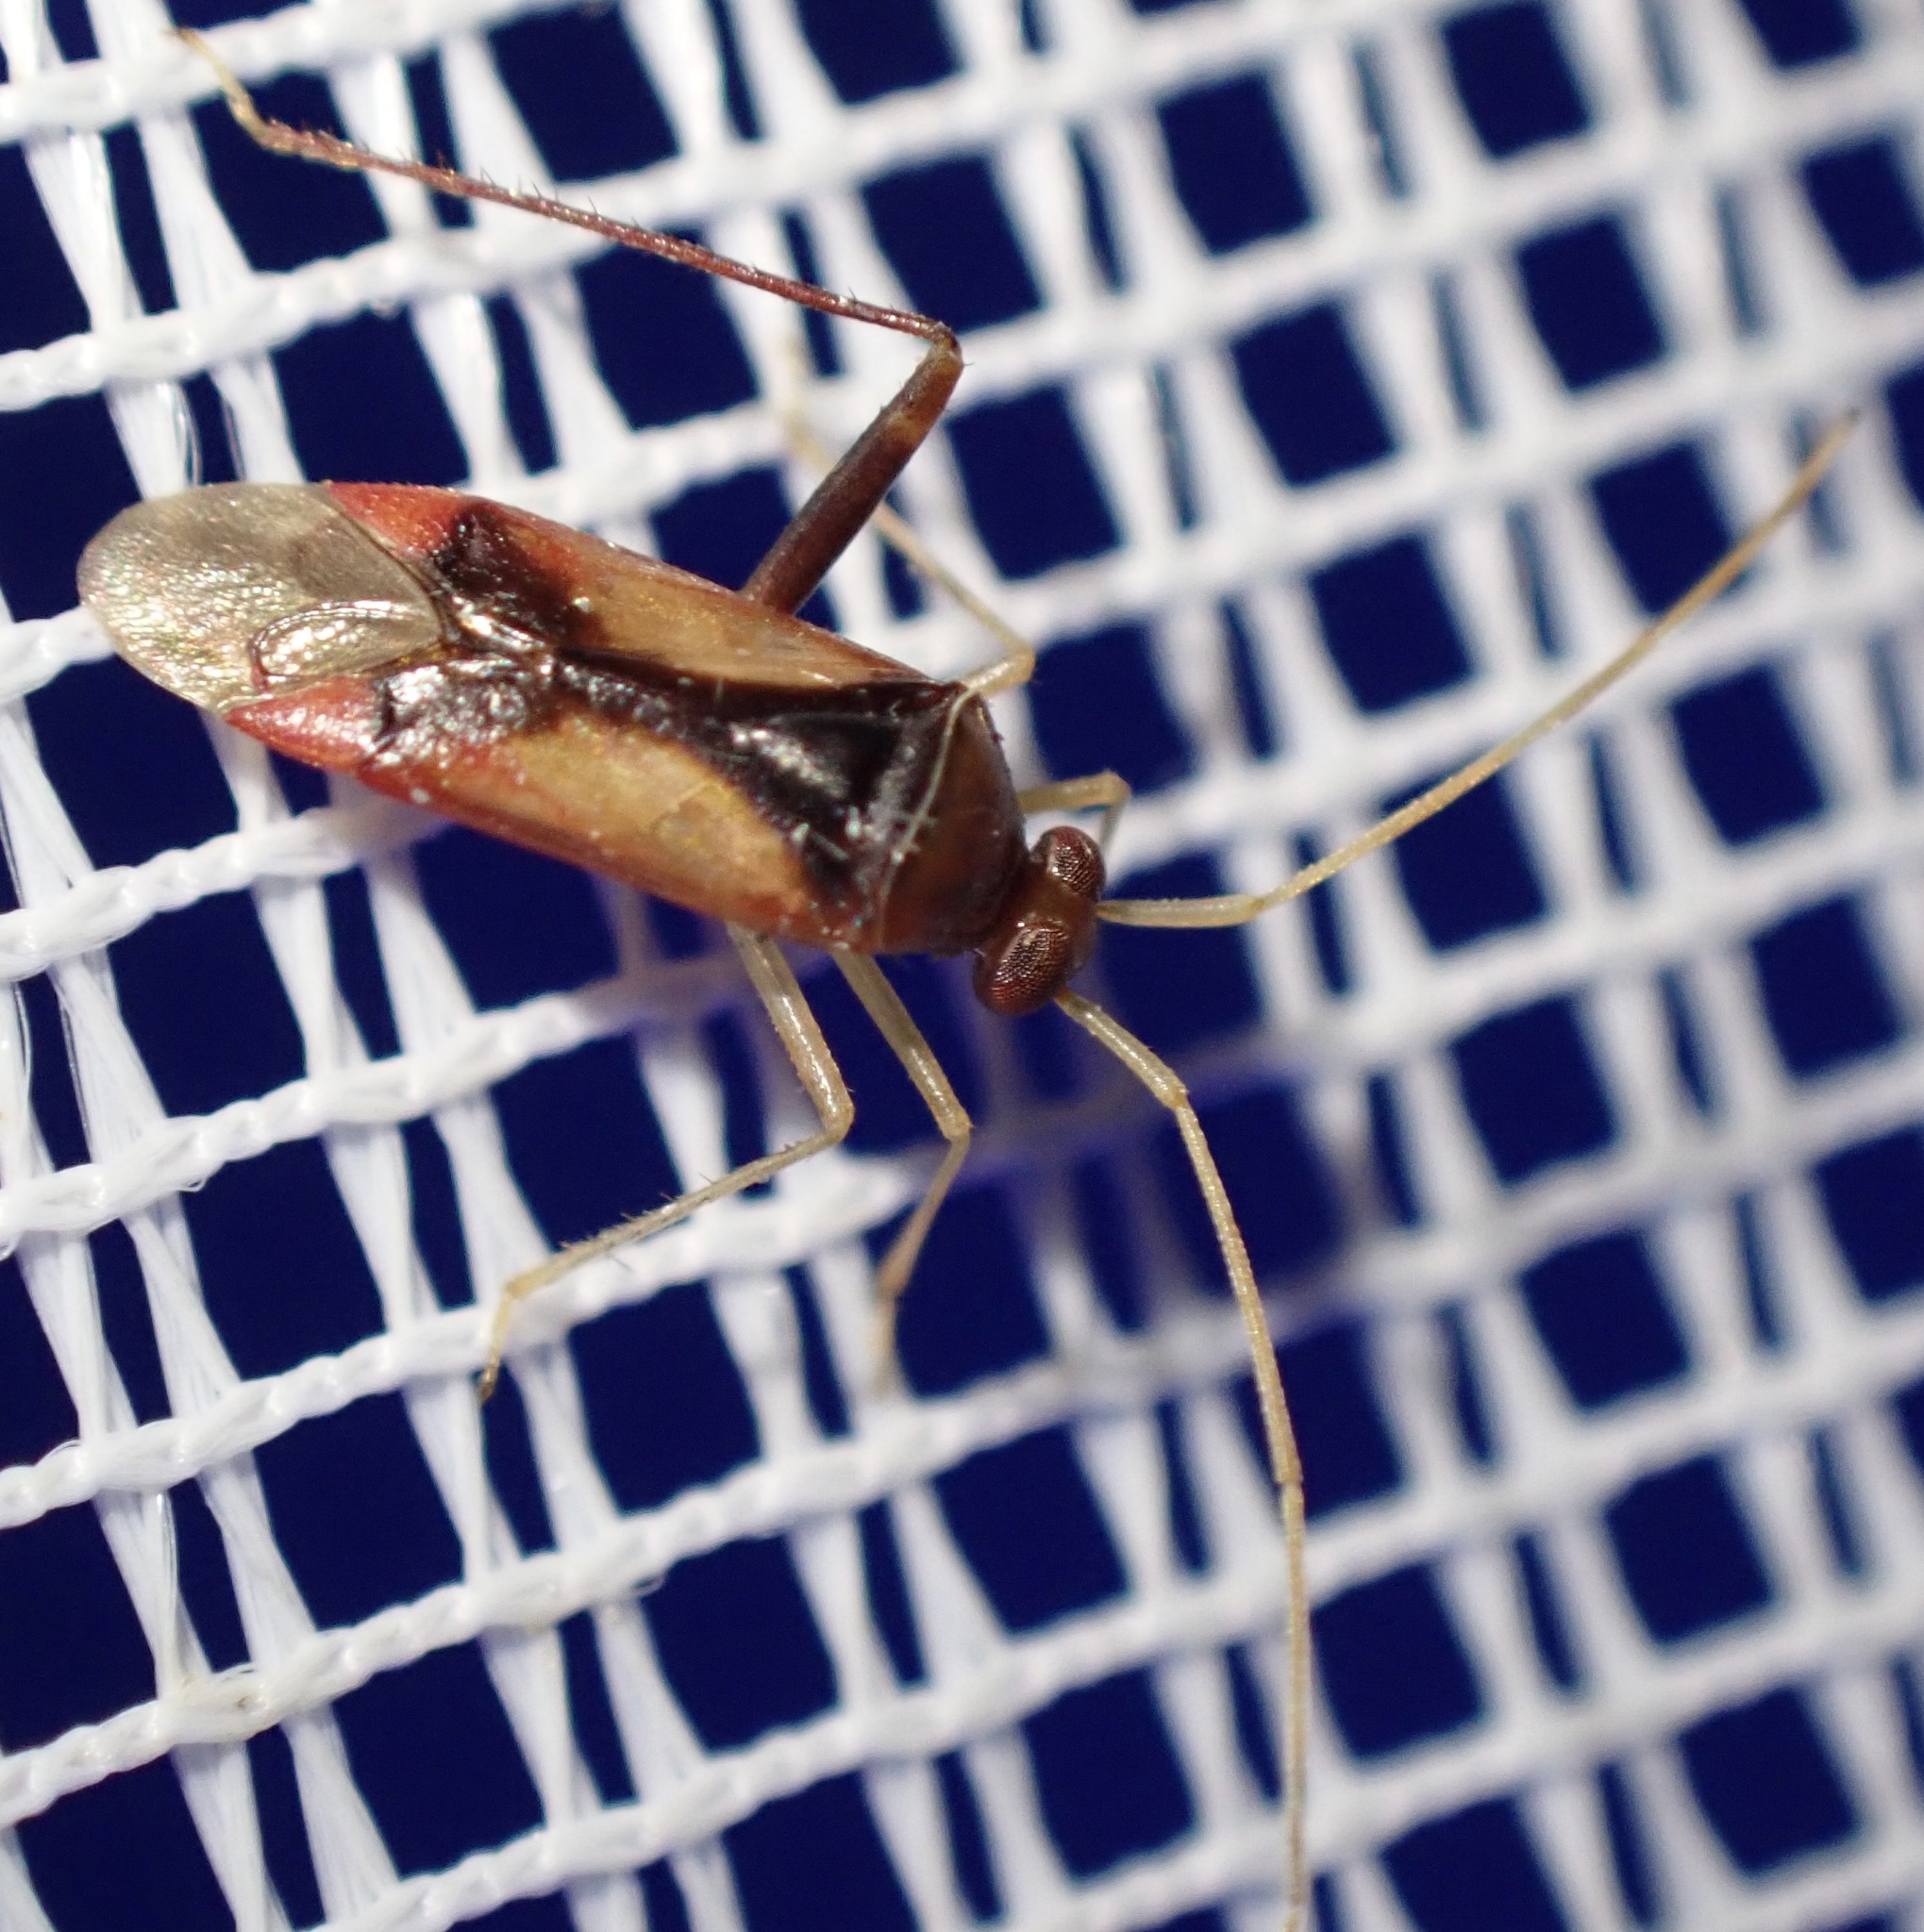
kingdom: Animalia
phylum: Arthropoda
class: Insecta
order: Hemiptera
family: Miridae
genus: Megacoelum
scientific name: Megacoelum scutellare
